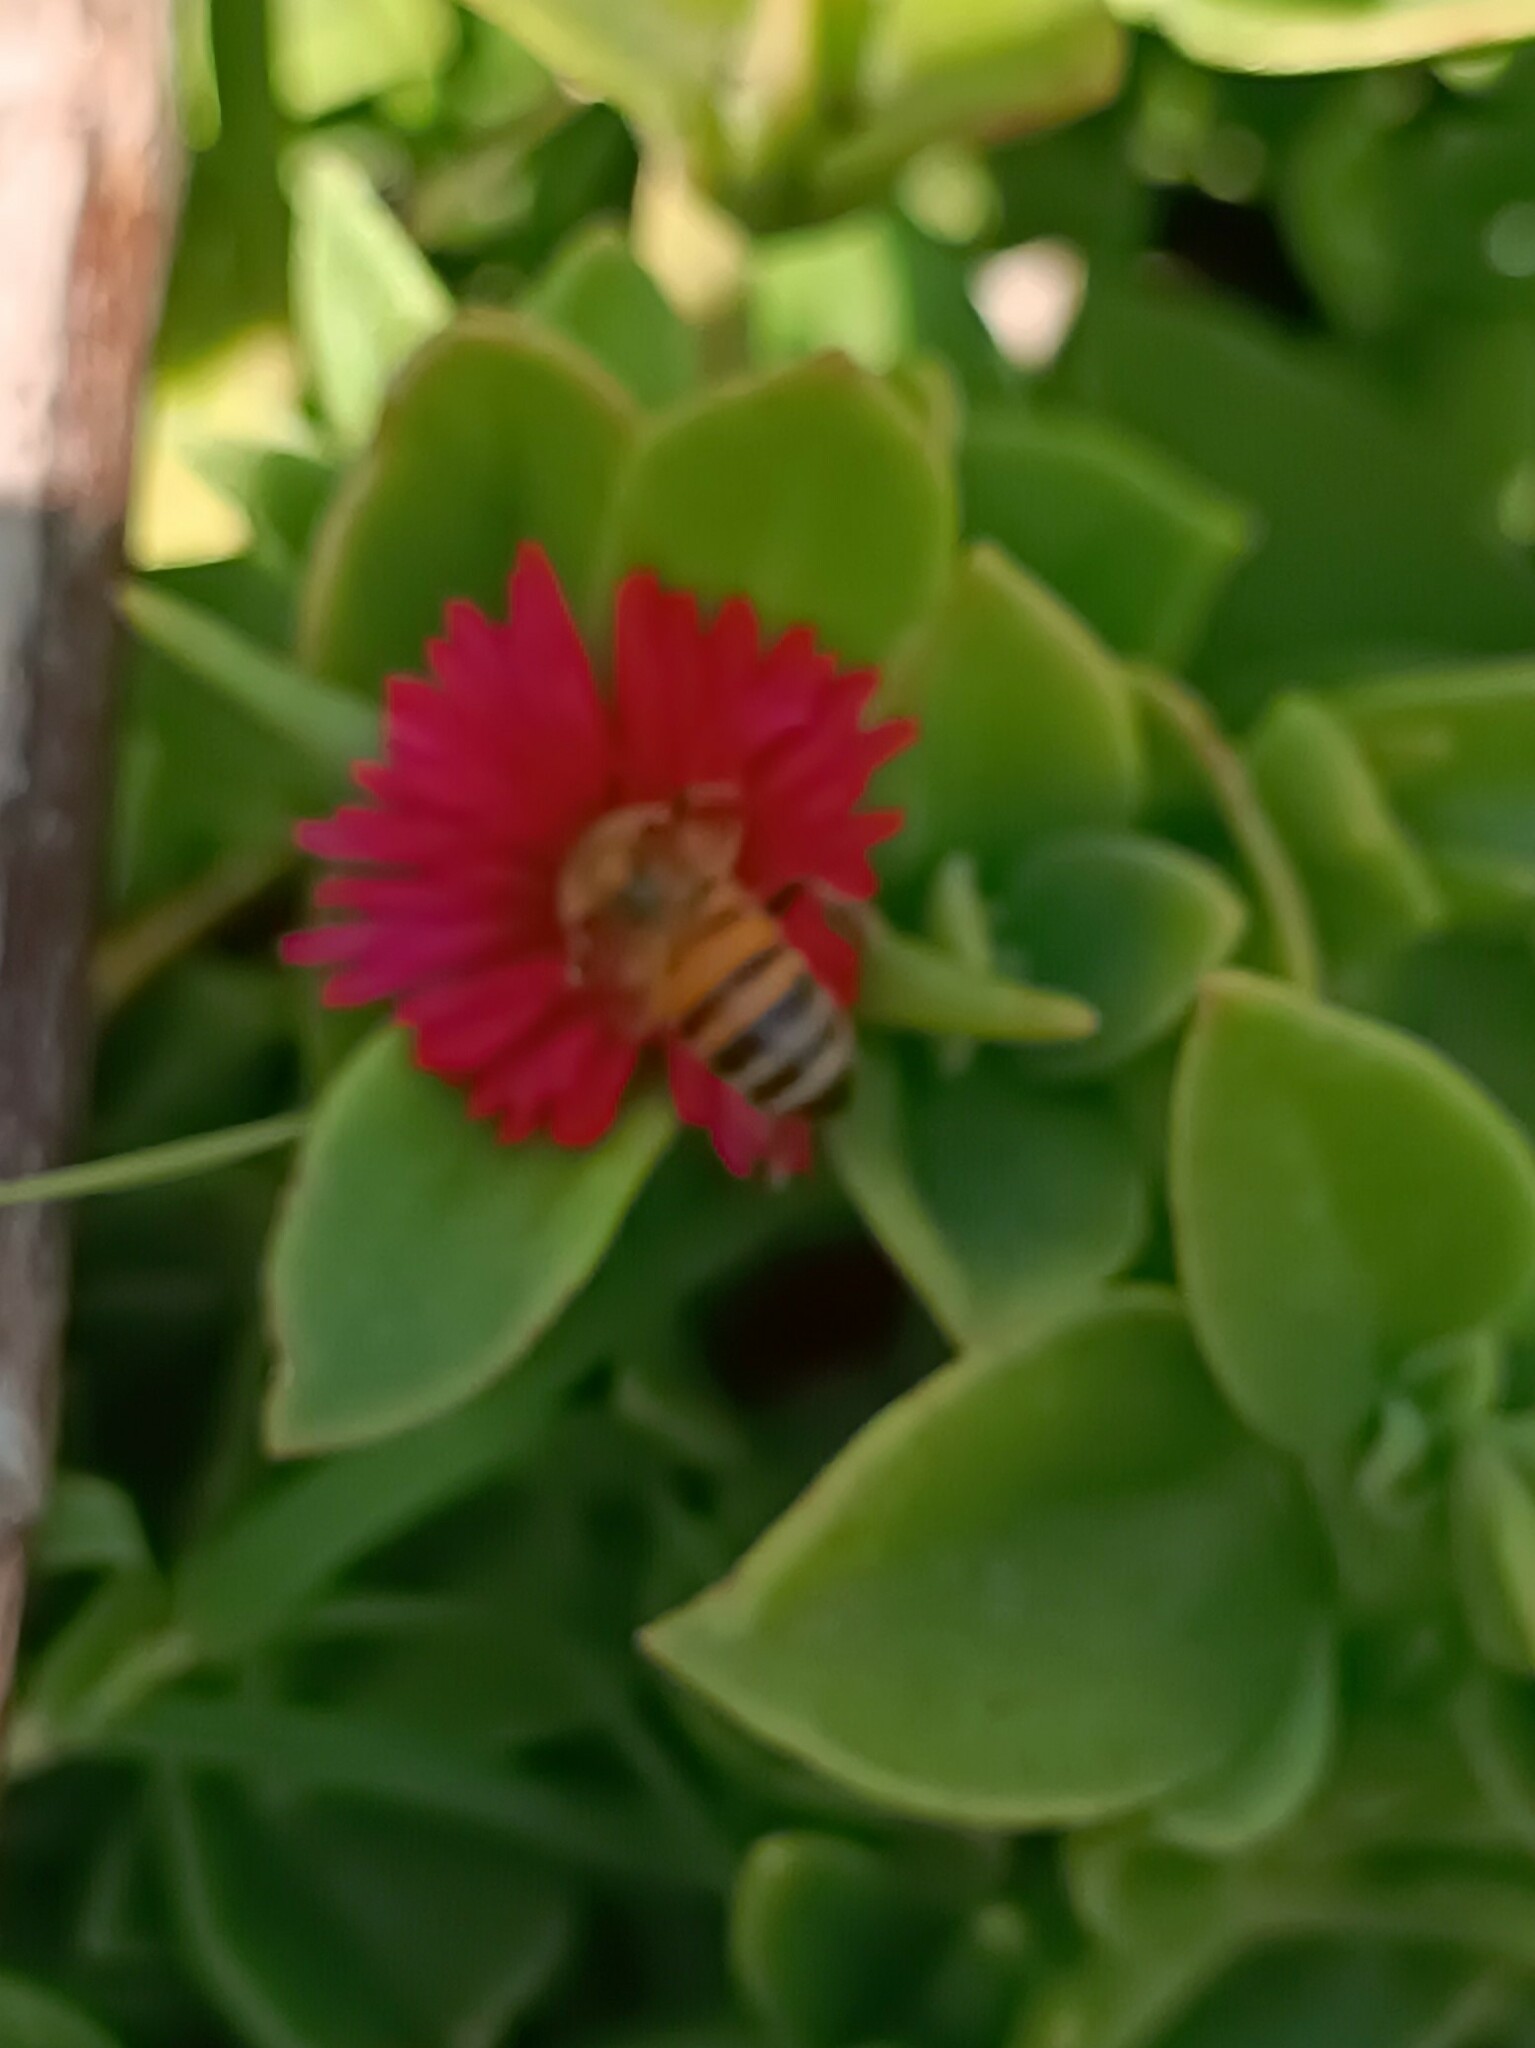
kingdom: Animalia
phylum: Arthropoda
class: Insecta
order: Hymenoptera
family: Apidae
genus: Apis
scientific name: Apis mellifera
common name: Honey bee
